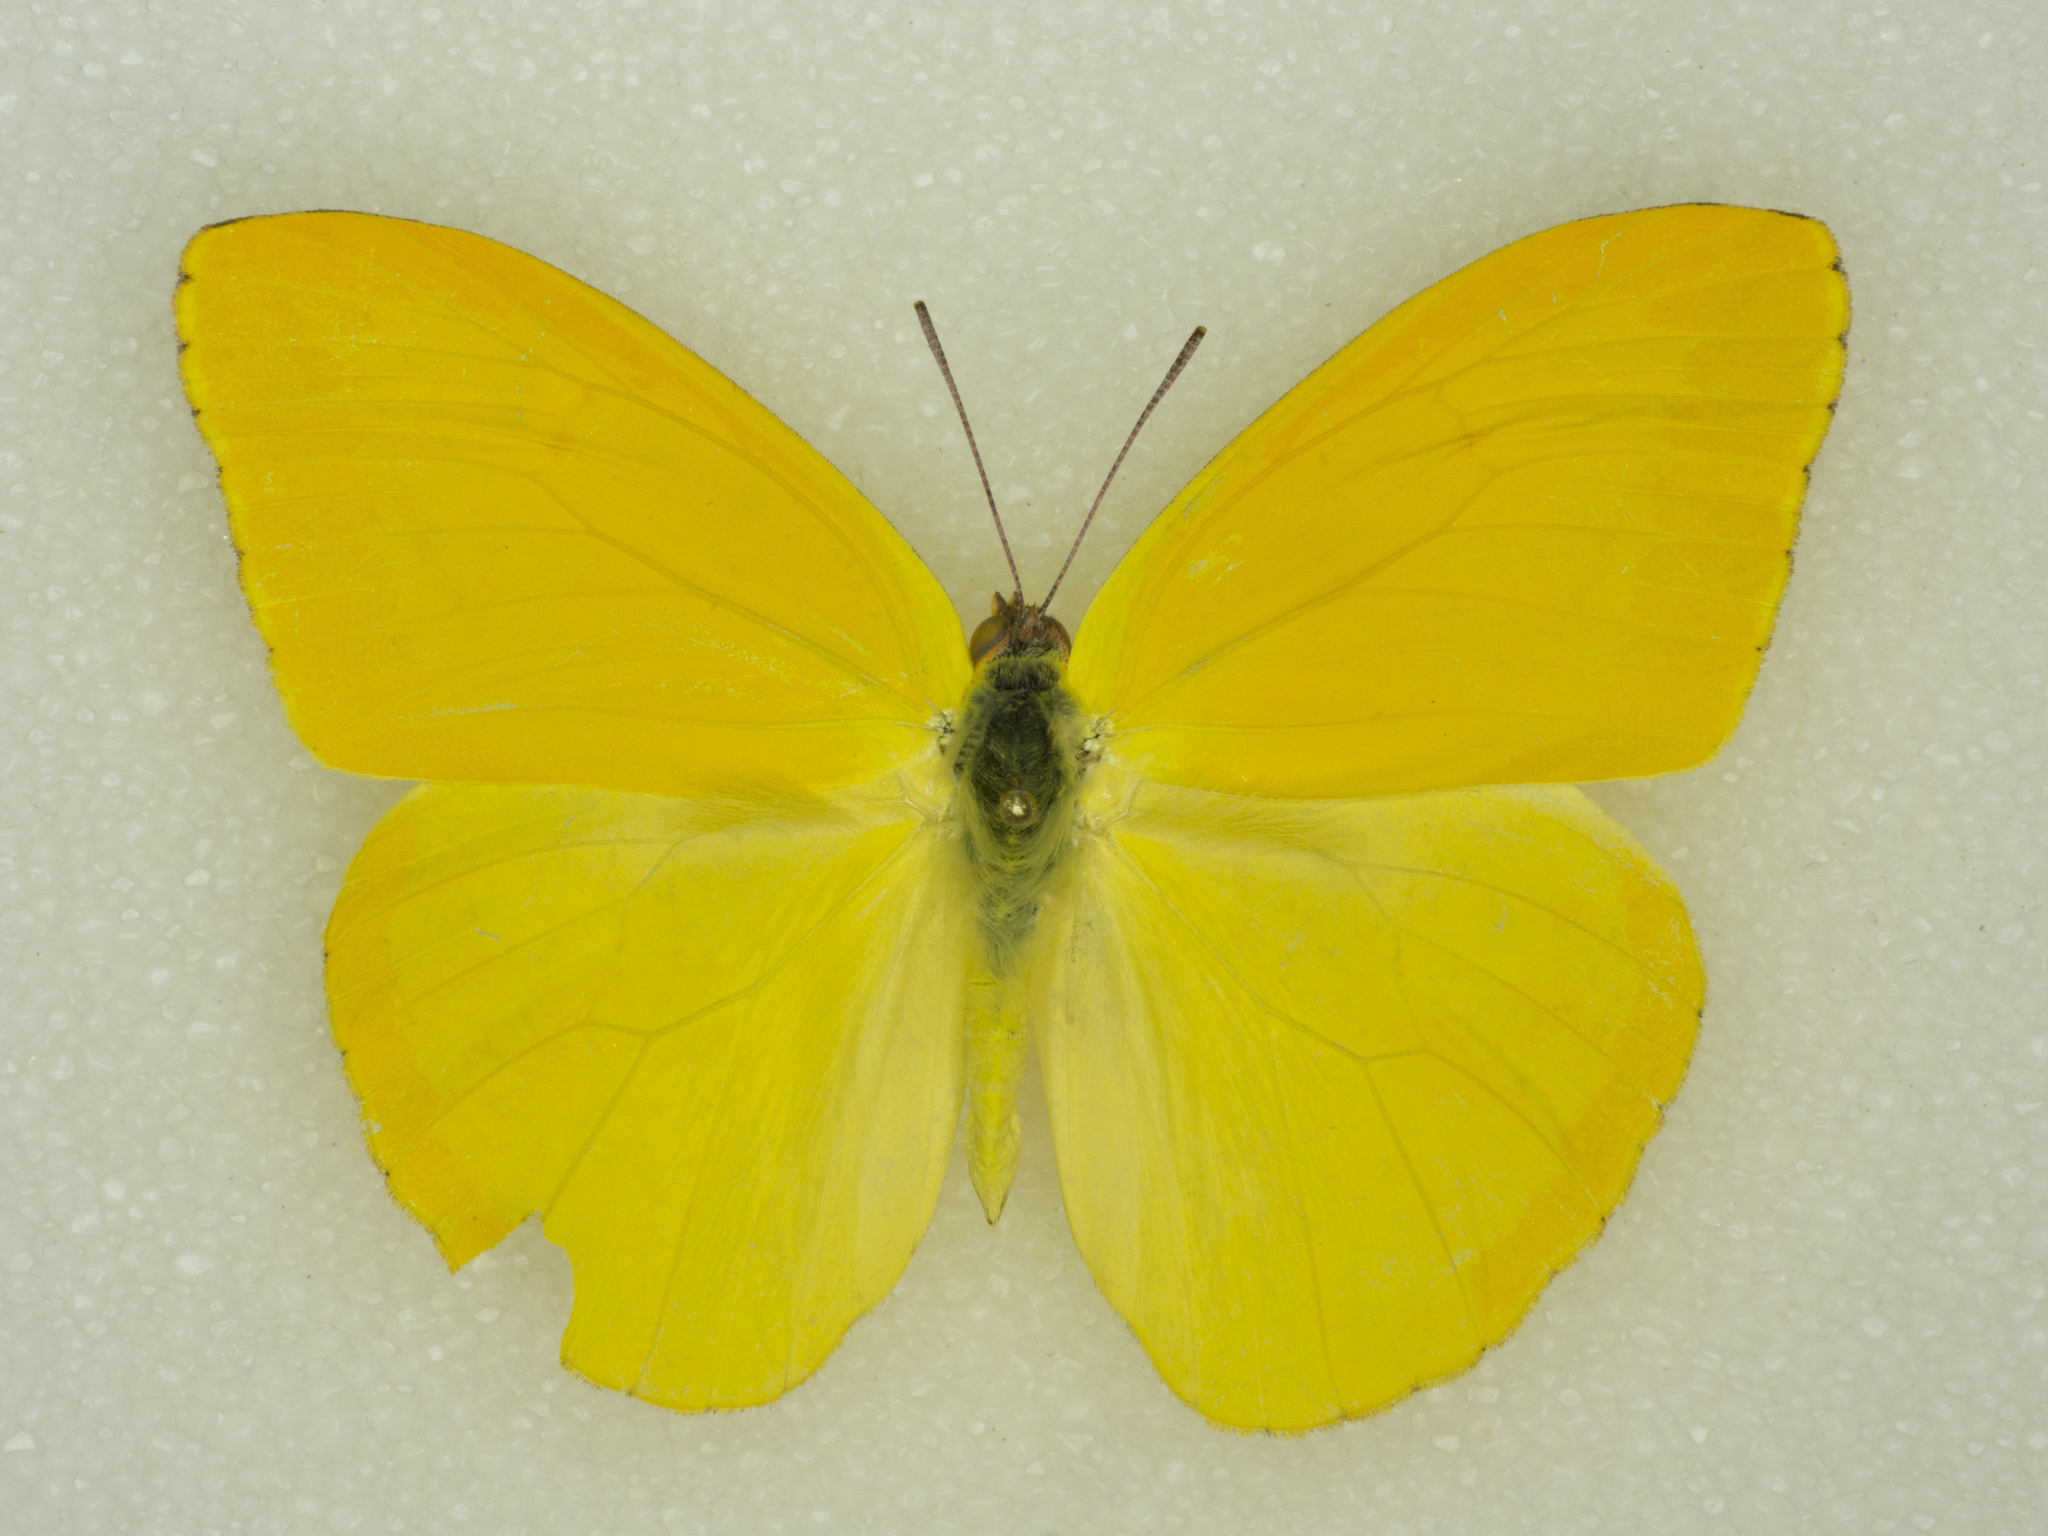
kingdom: Animalia
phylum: Arthropoda
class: Insecta
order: Lepidoptera
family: Pieridae
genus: Phoebis
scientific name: Phoebis agarithe
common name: Large orange sulphur
